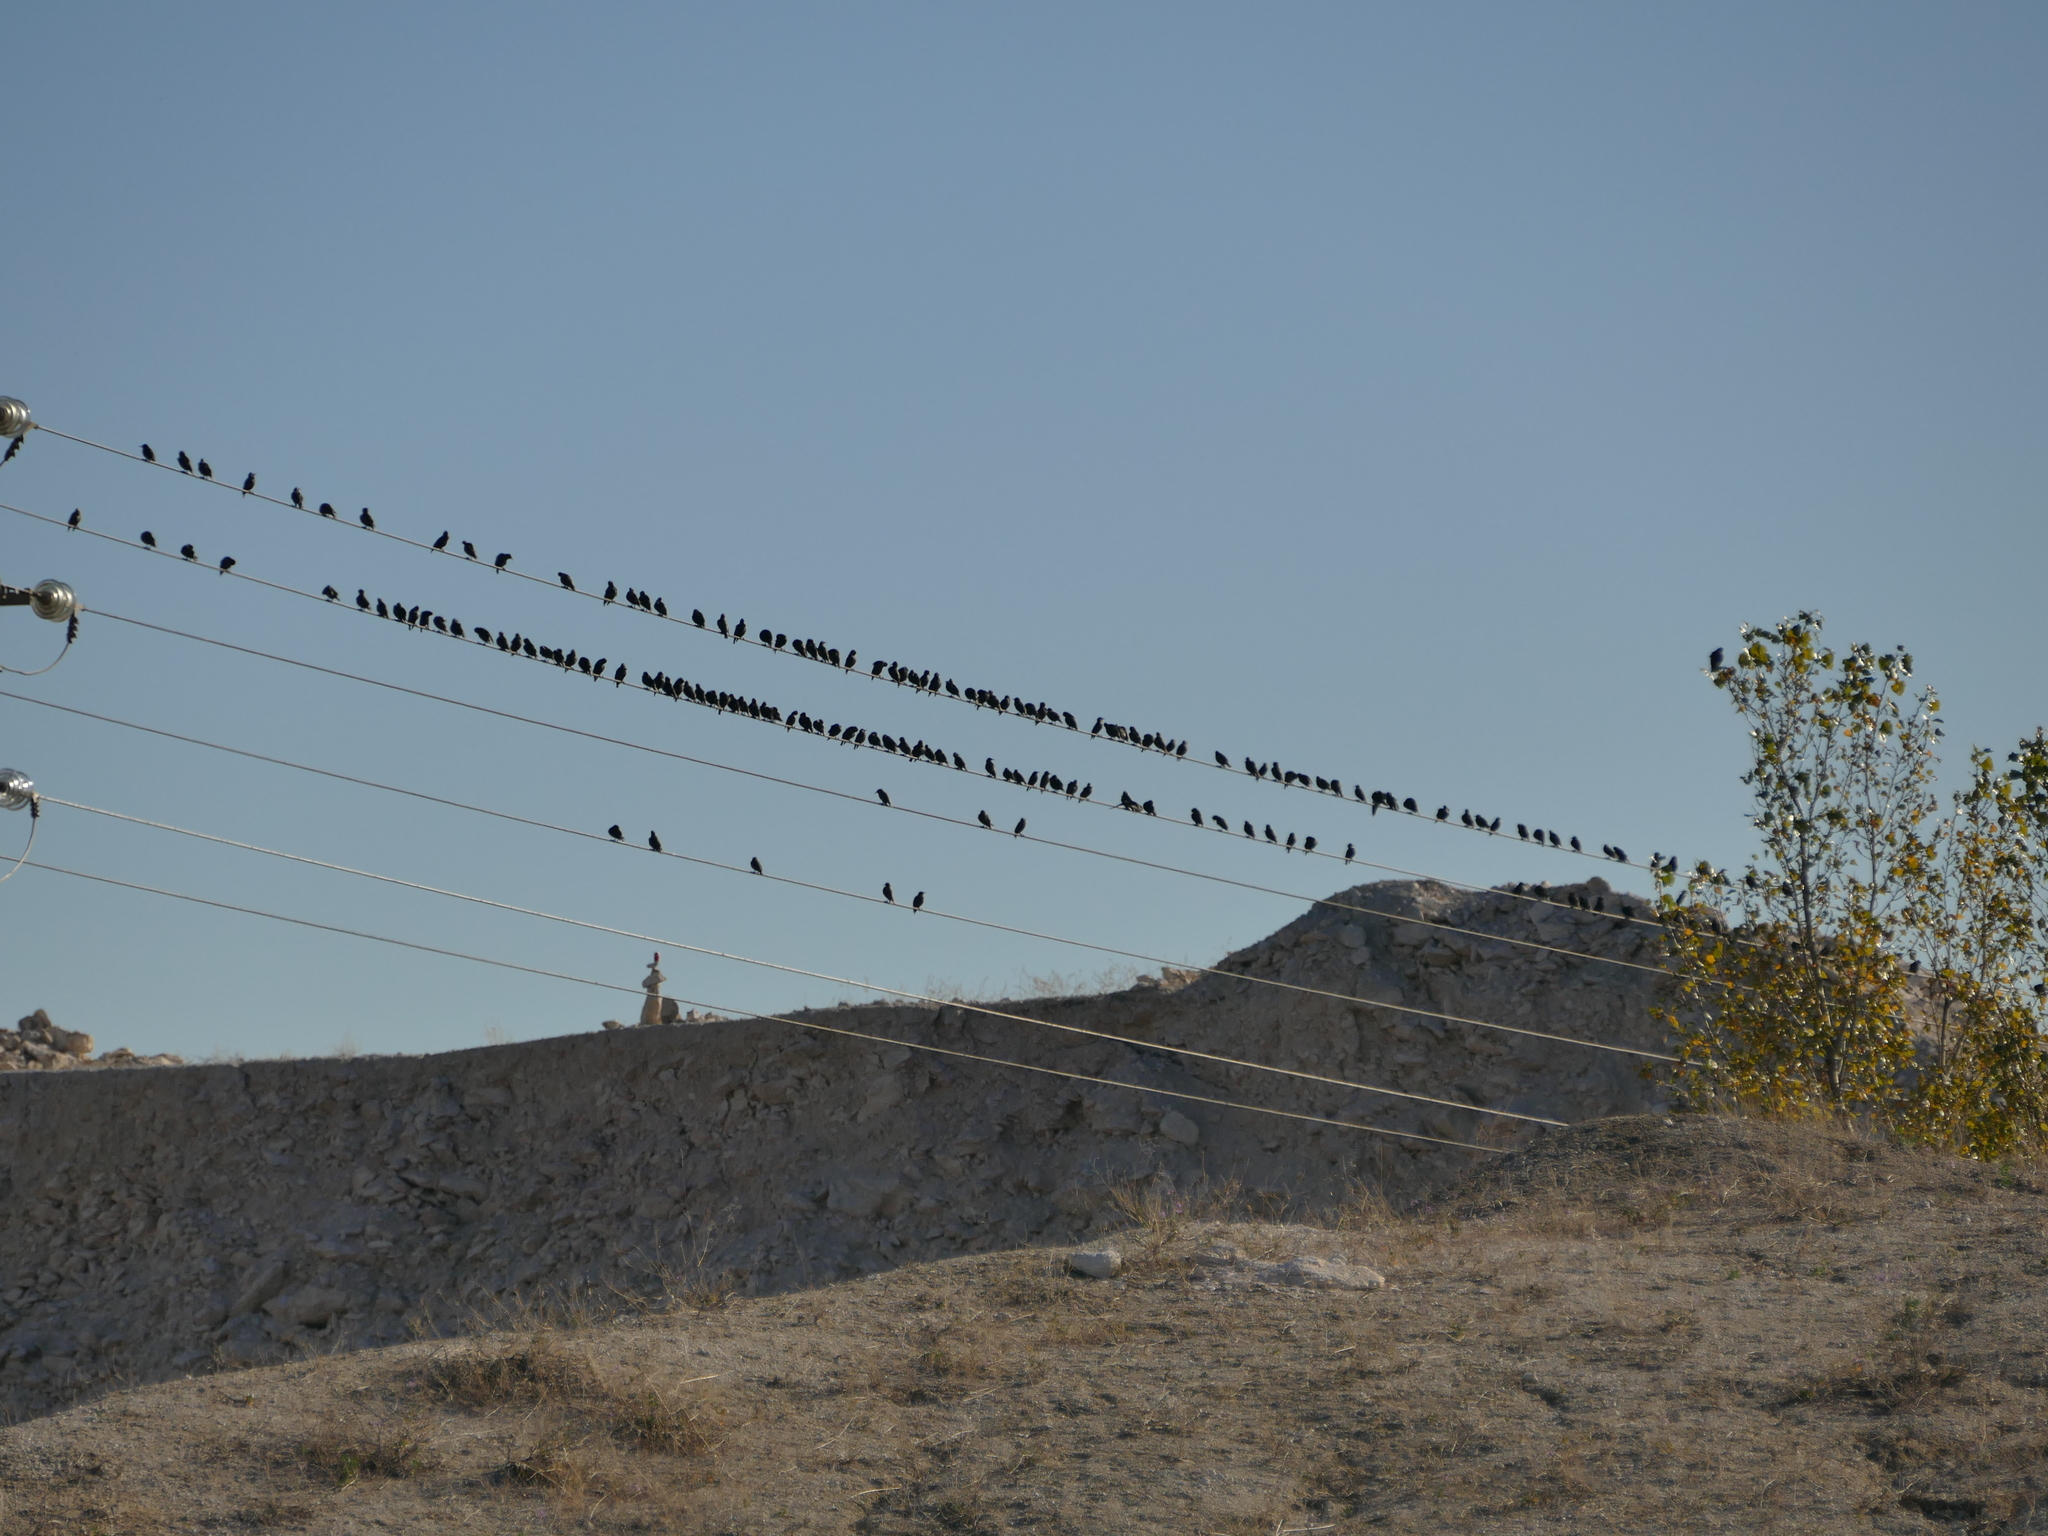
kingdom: Animalia
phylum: Chordata
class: Aves
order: Passeriformes
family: Sturnidae
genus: Sturnus
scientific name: Sturnus unicolor
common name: Spotless starling
